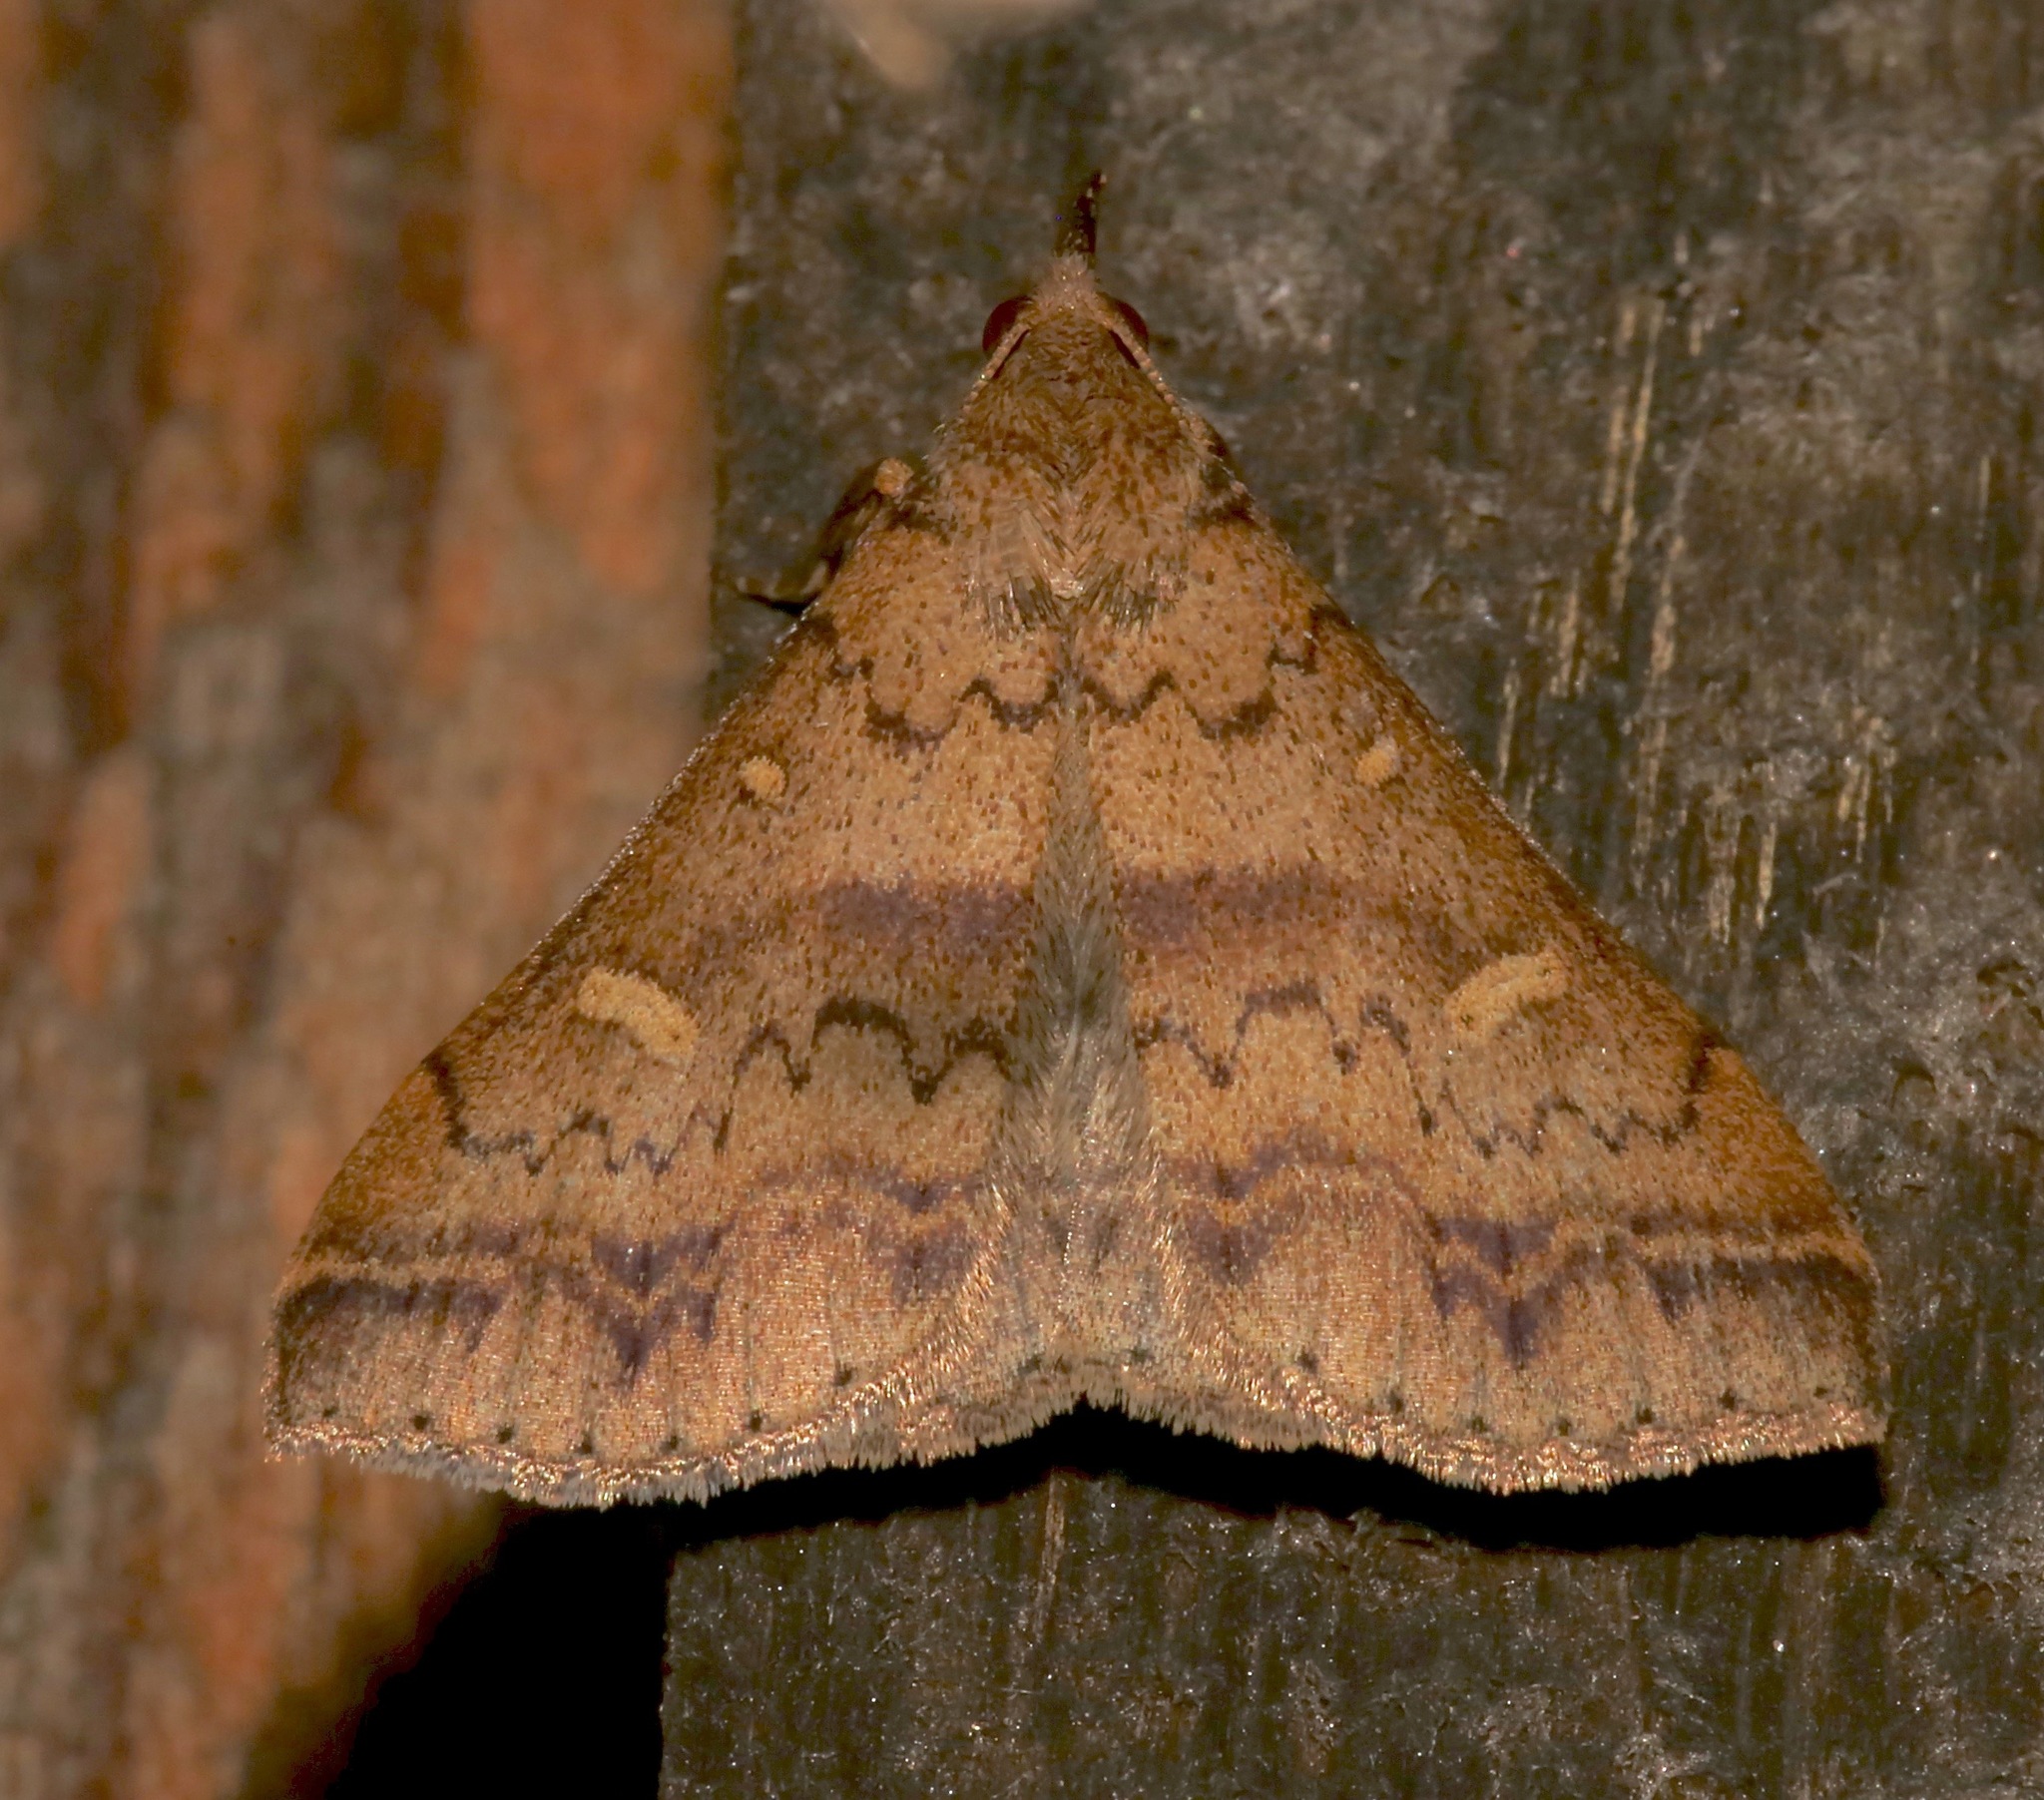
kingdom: Animalia
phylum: Arthropoda
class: Insecta
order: Lepidoptera
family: Erebidae
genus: Renia
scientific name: Renia discoloralis
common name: Discolored renia moth
